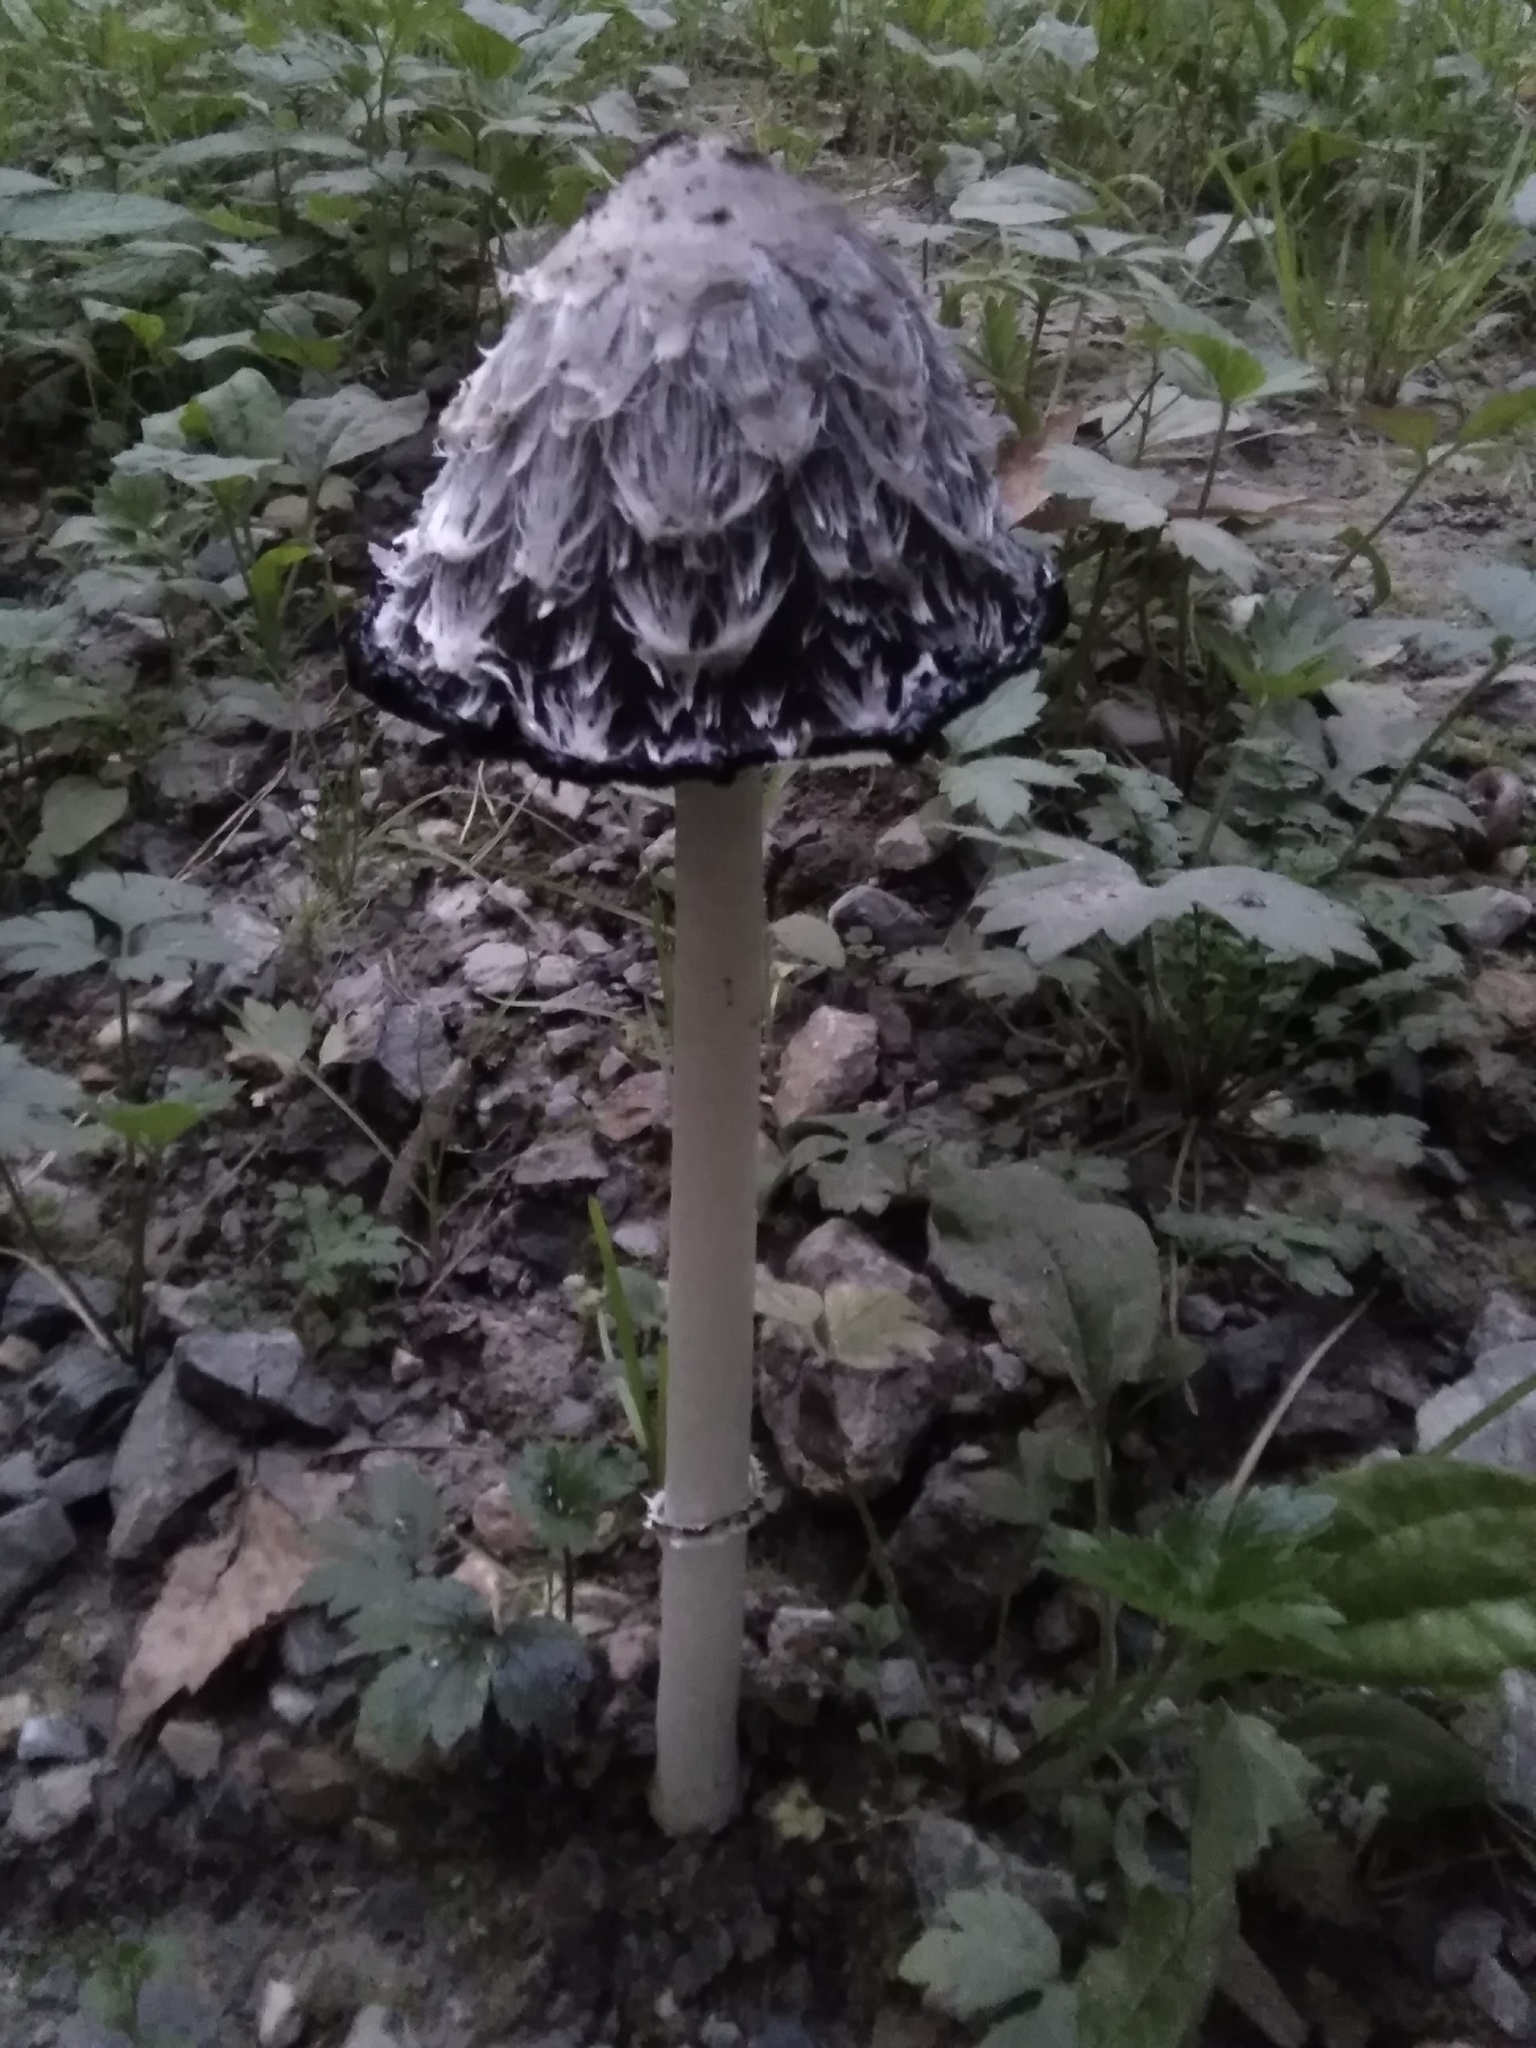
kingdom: Fungi
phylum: Basidiomycota
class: Agaricomycetes
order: Agaricales
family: Agaricaceae
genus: Coprinus
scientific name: Coprinus comatus
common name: Lawyer's wig
